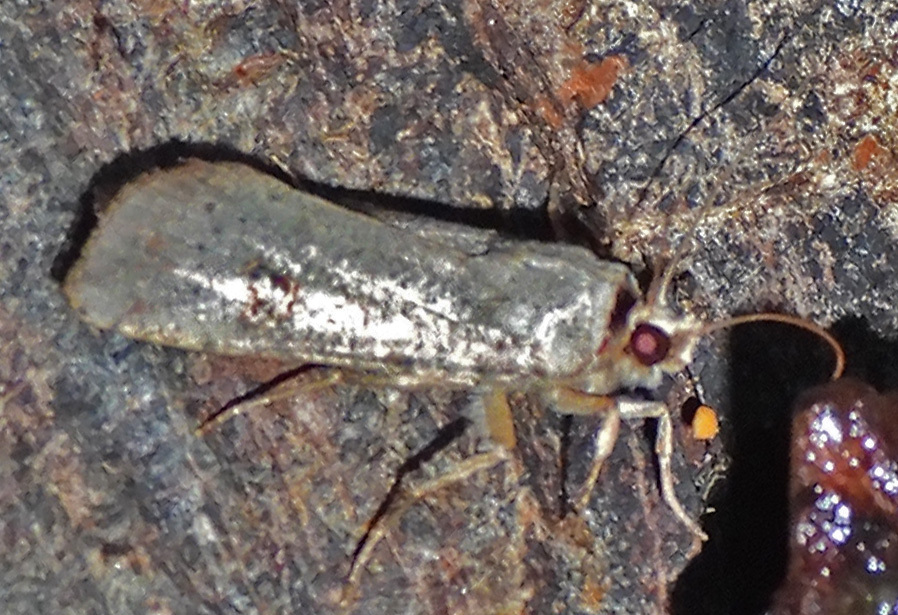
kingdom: Animalia
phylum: Arthropoda
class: Insecta
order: Lepidoptera
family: Noctuidae
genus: Anicla
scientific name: Anicla infecta
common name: Green cutworm
